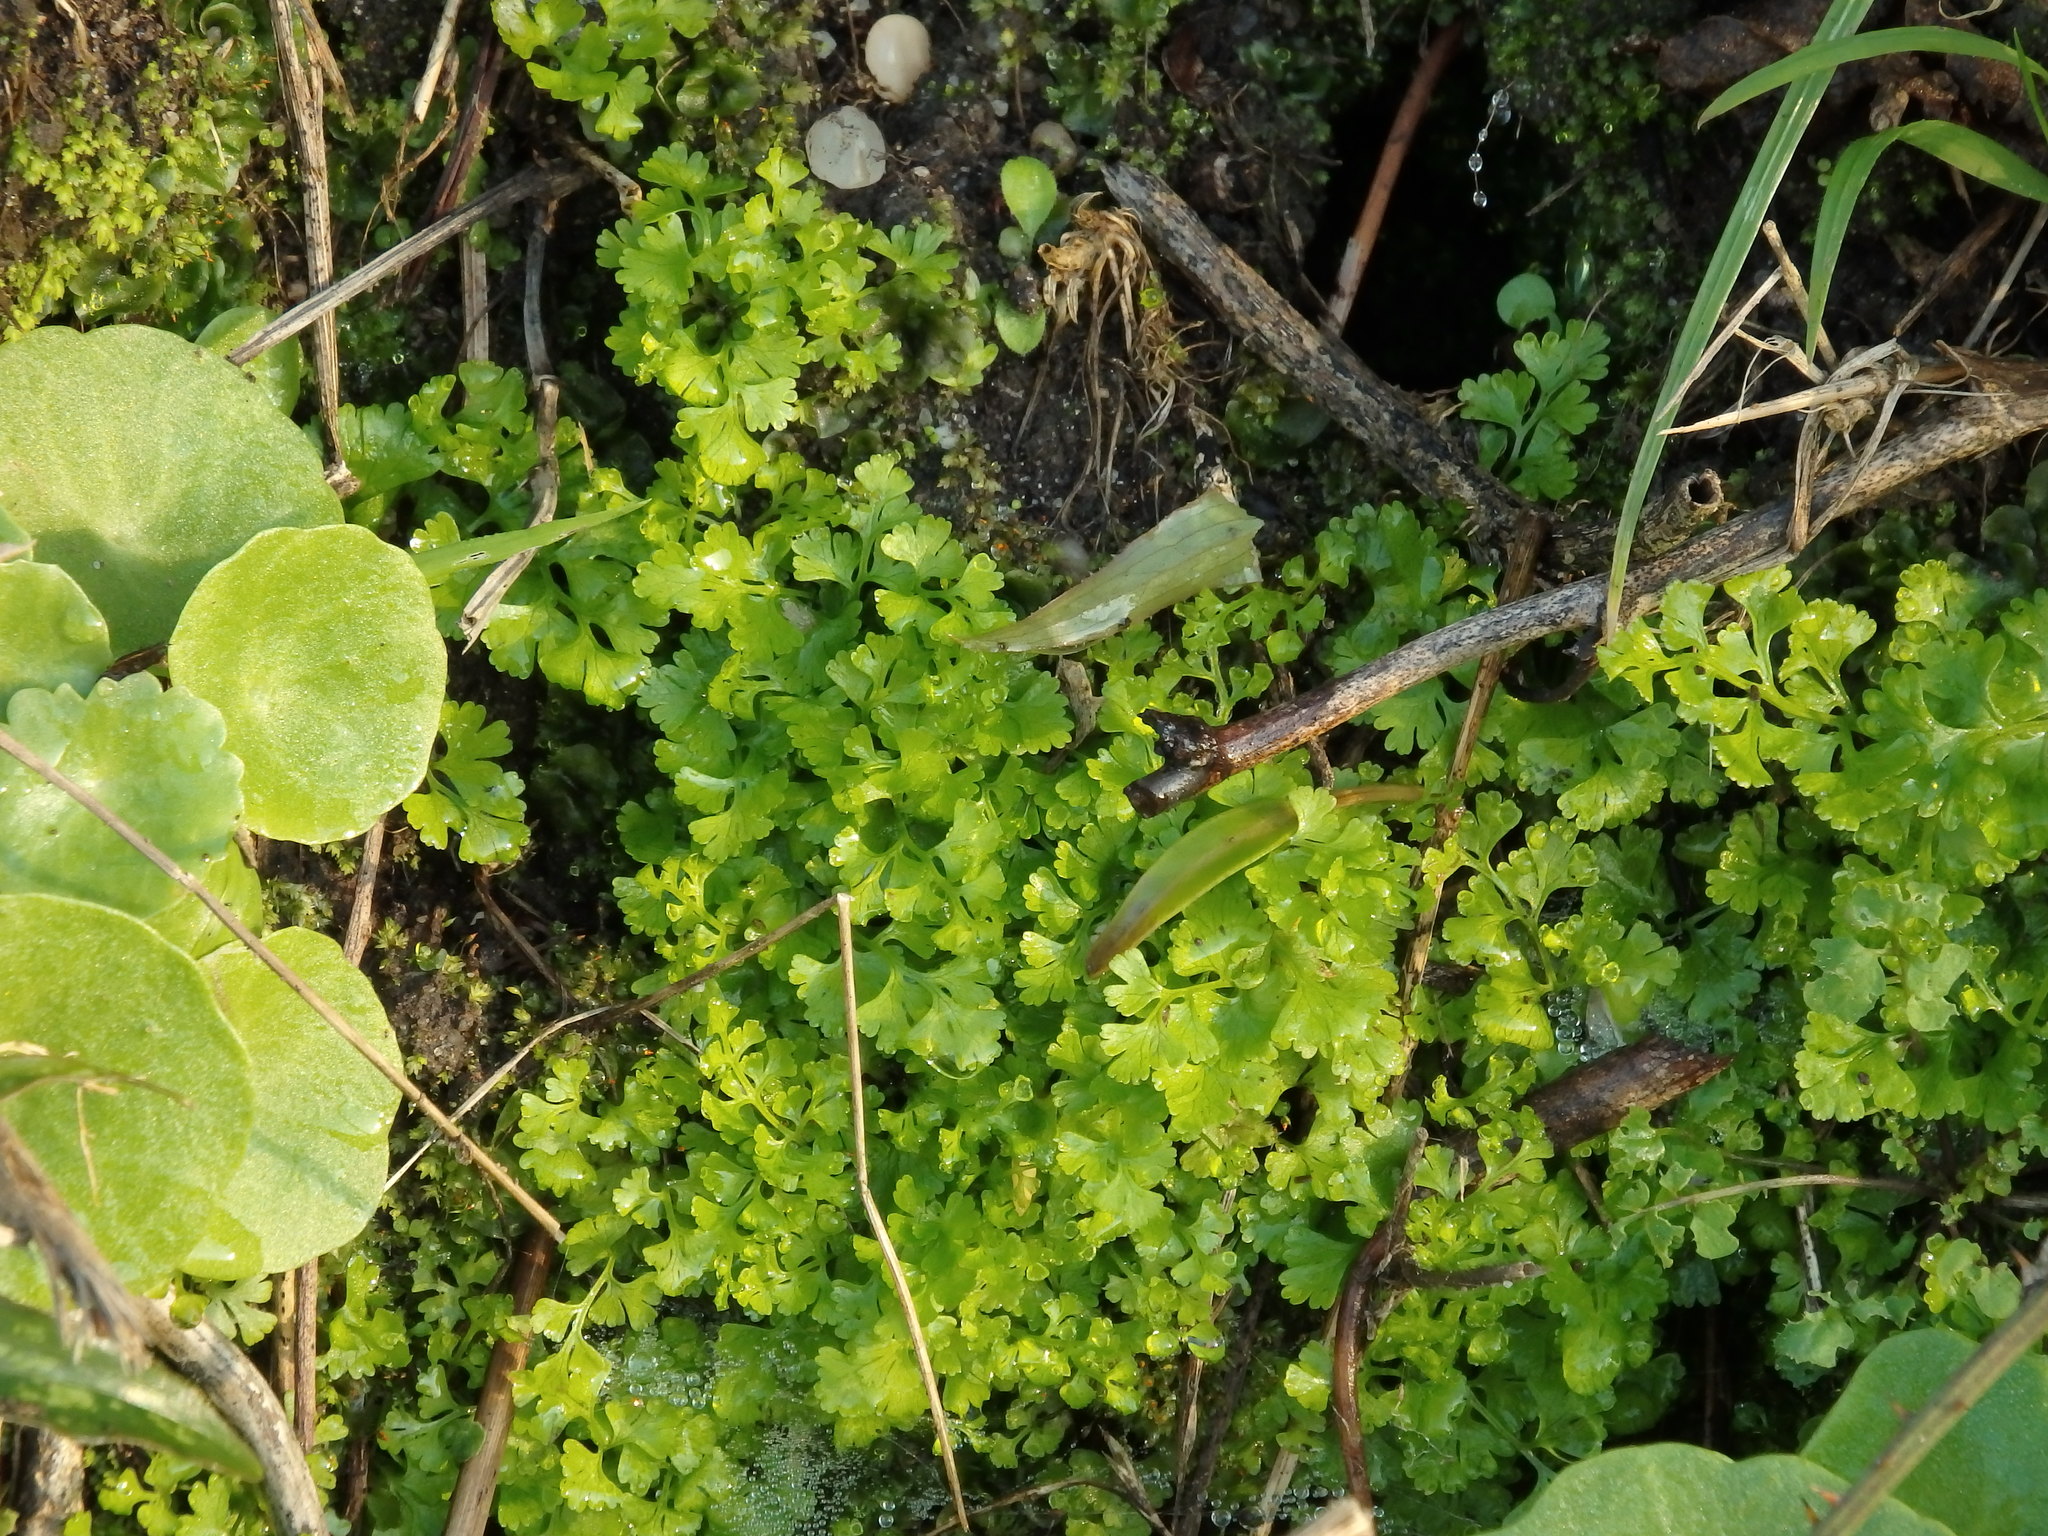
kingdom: Plantae
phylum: Tracheophyta
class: Polypodiopsida
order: Polypodiales
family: Pteridaceae
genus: Anogramma
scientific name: Anogramma leptophylla
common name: Jersey fern
